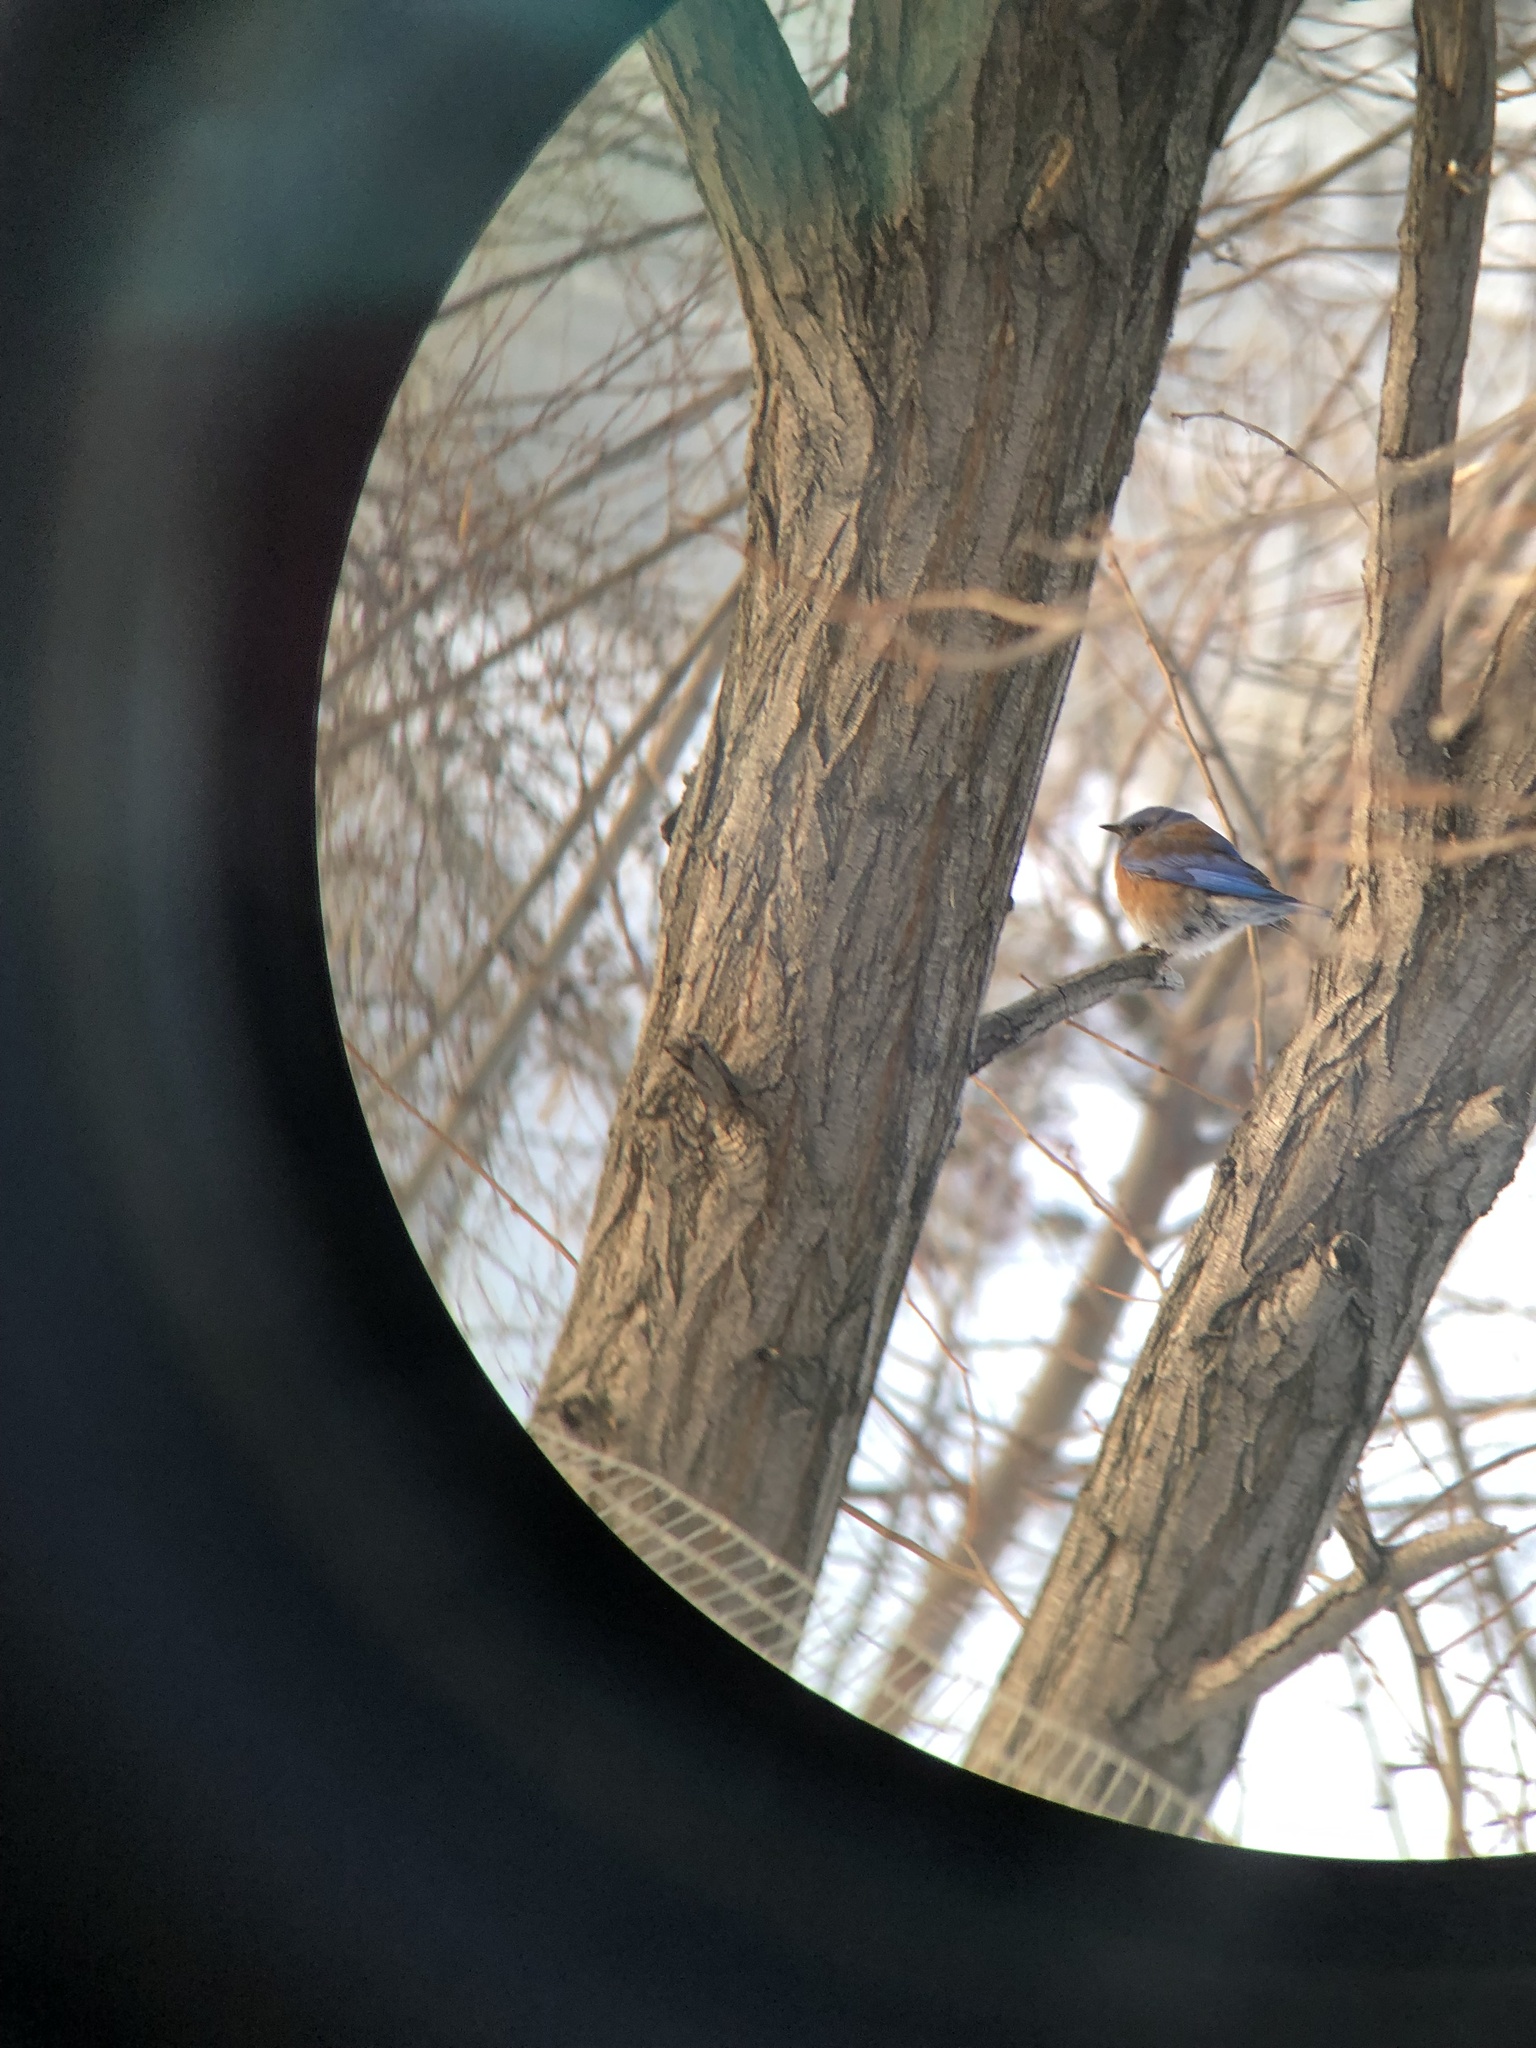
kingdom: Animalia
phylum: Chordata
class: Aves
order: Passeriformes
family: Turdidae
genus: Sialia
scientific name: Sialia mexicana
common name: Western bluebird
